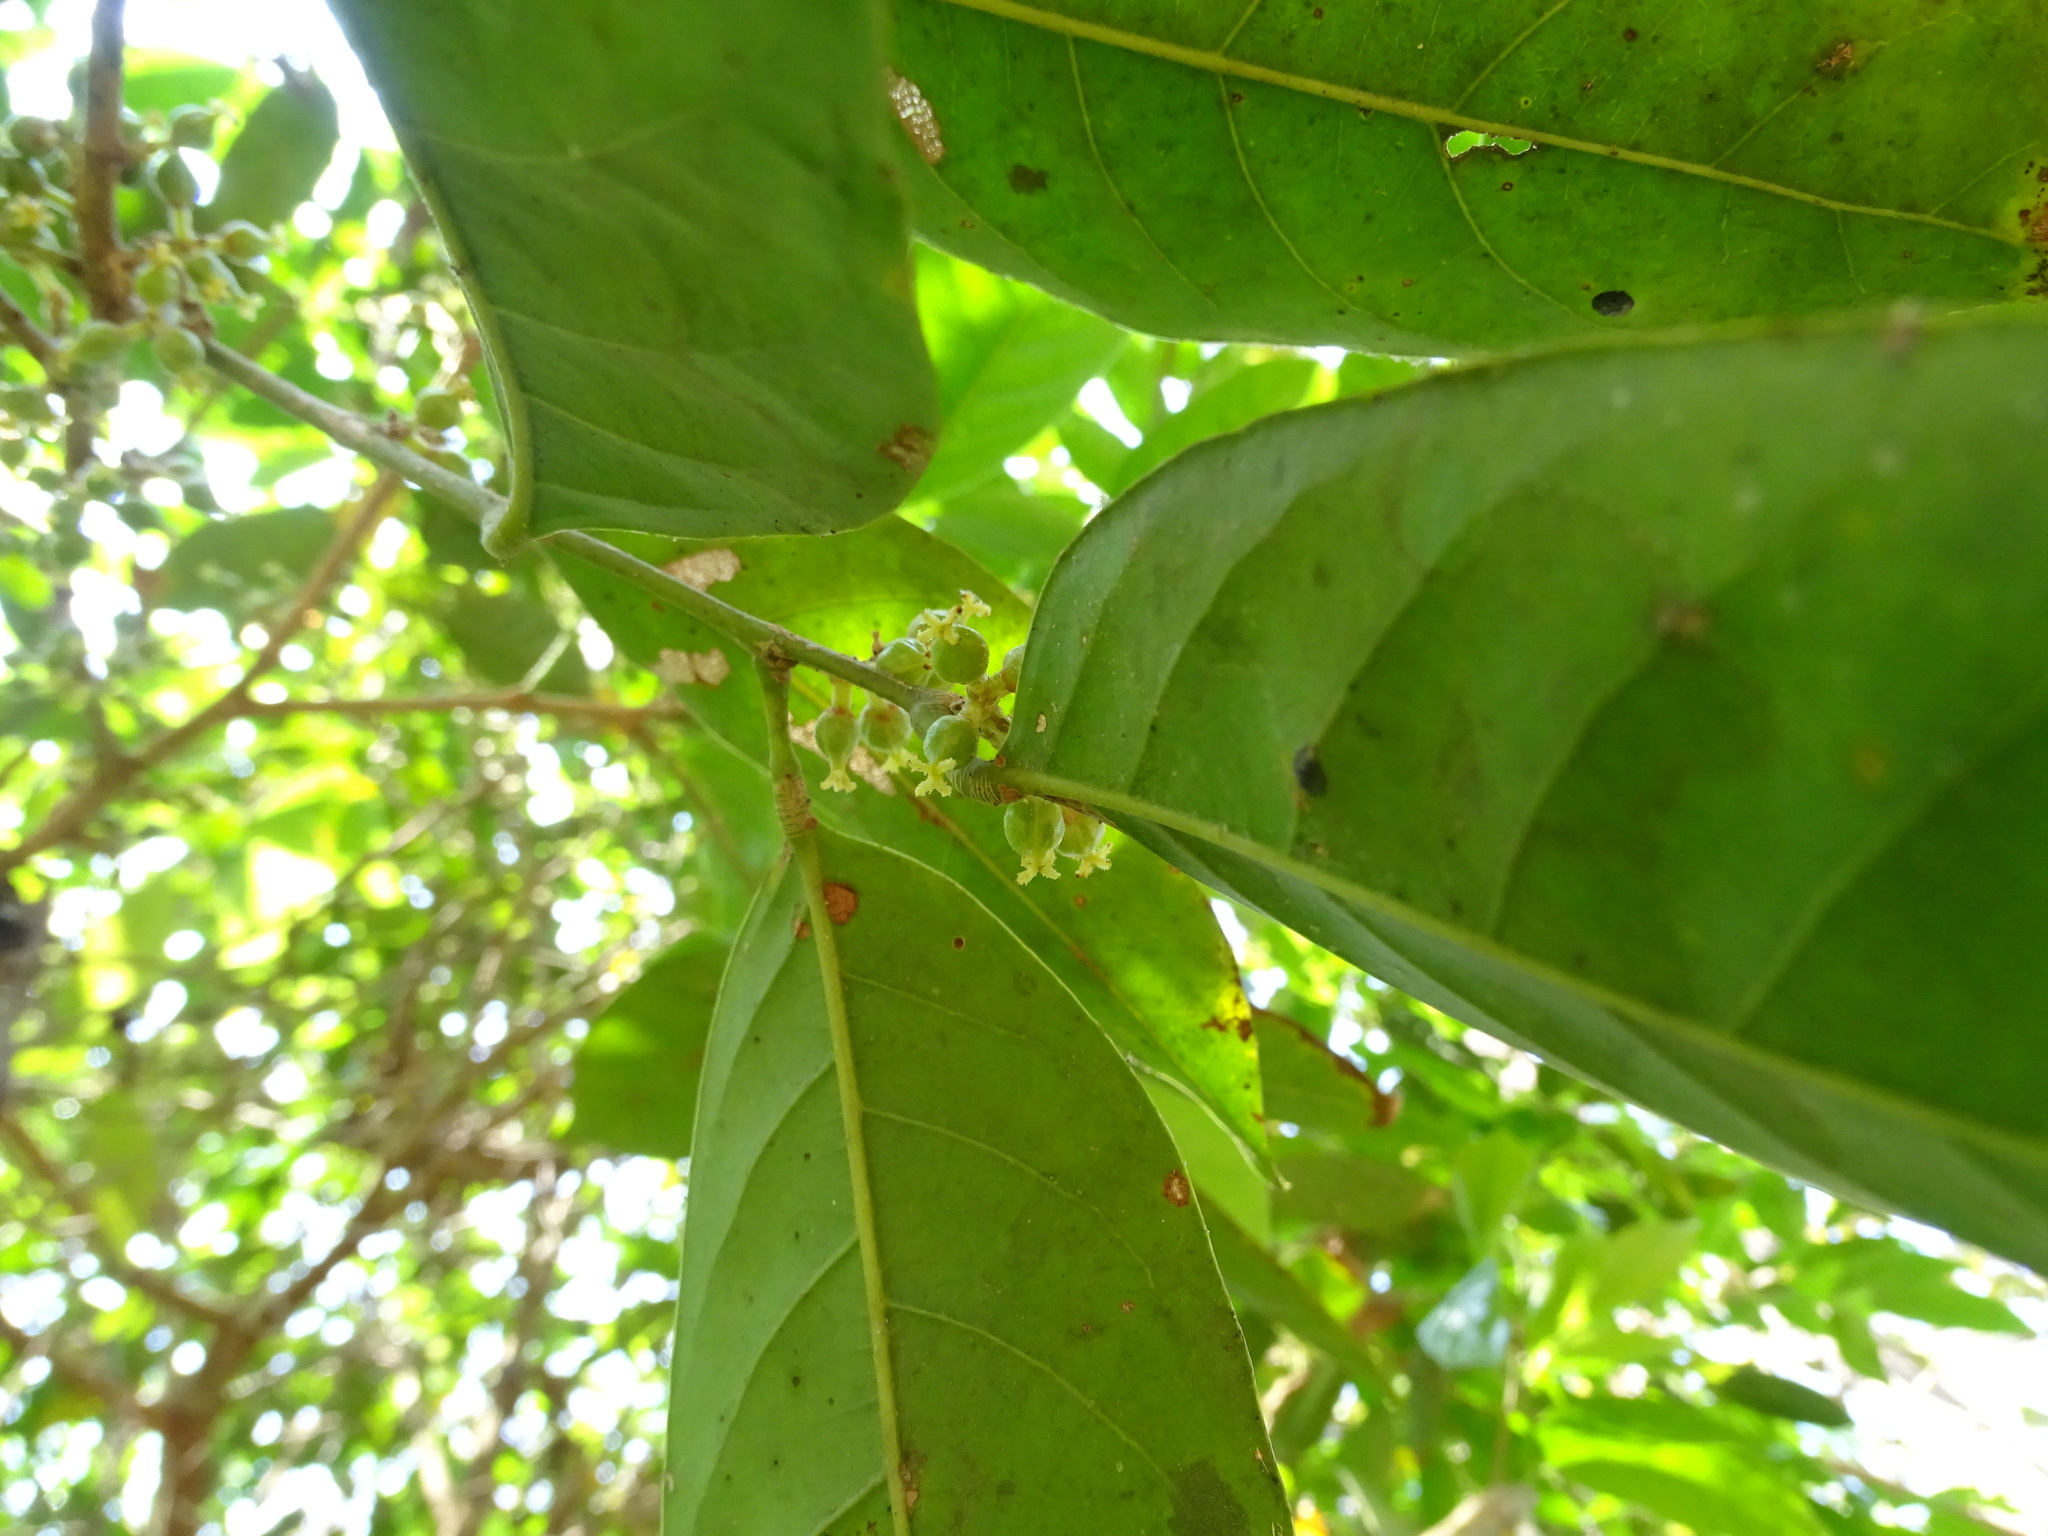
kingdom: Plantae
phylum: Tracheophyta
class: Magnoliopsida
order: Malpighiales
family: Phyllanthaceae
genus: Aporosa
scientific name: Aporosa cardiosperma
